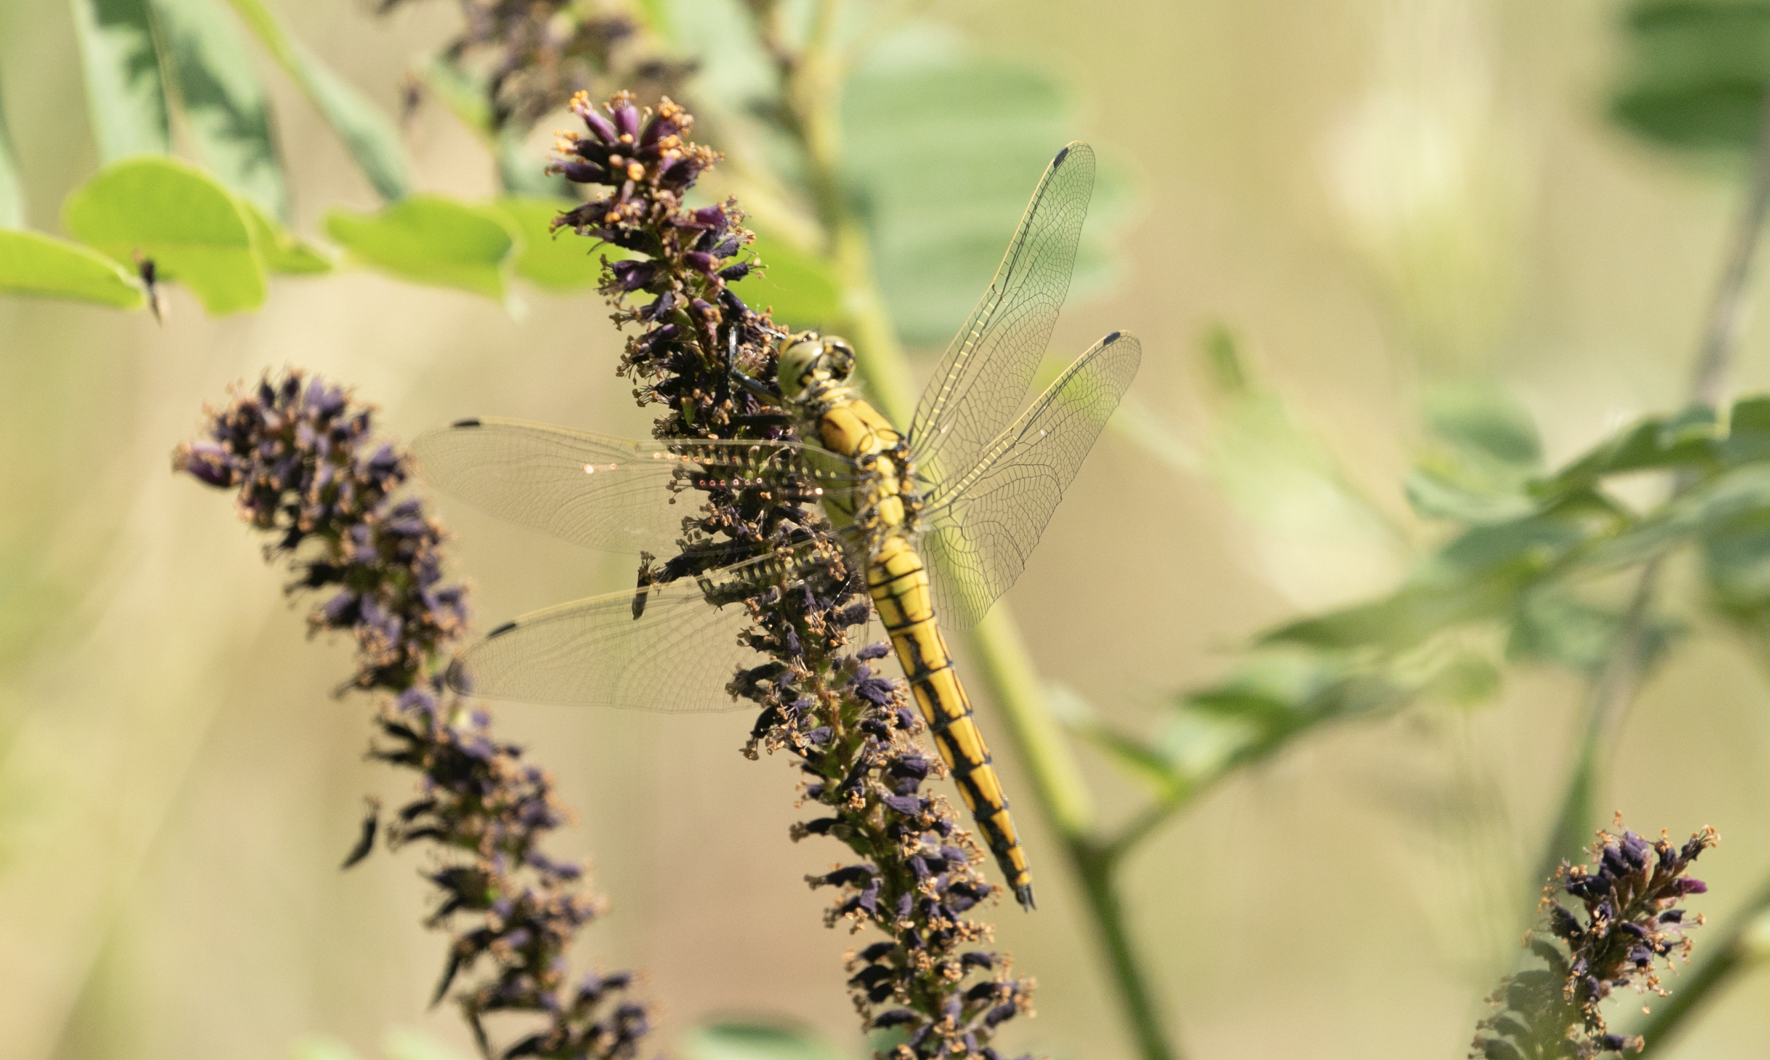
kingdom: Animalia
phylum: Arthropoda
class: Insecta
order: Odonata
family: Libellulidae
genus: Orthetrum
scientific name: Orthetrum cancellatum
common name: Black-tailed skimmer
